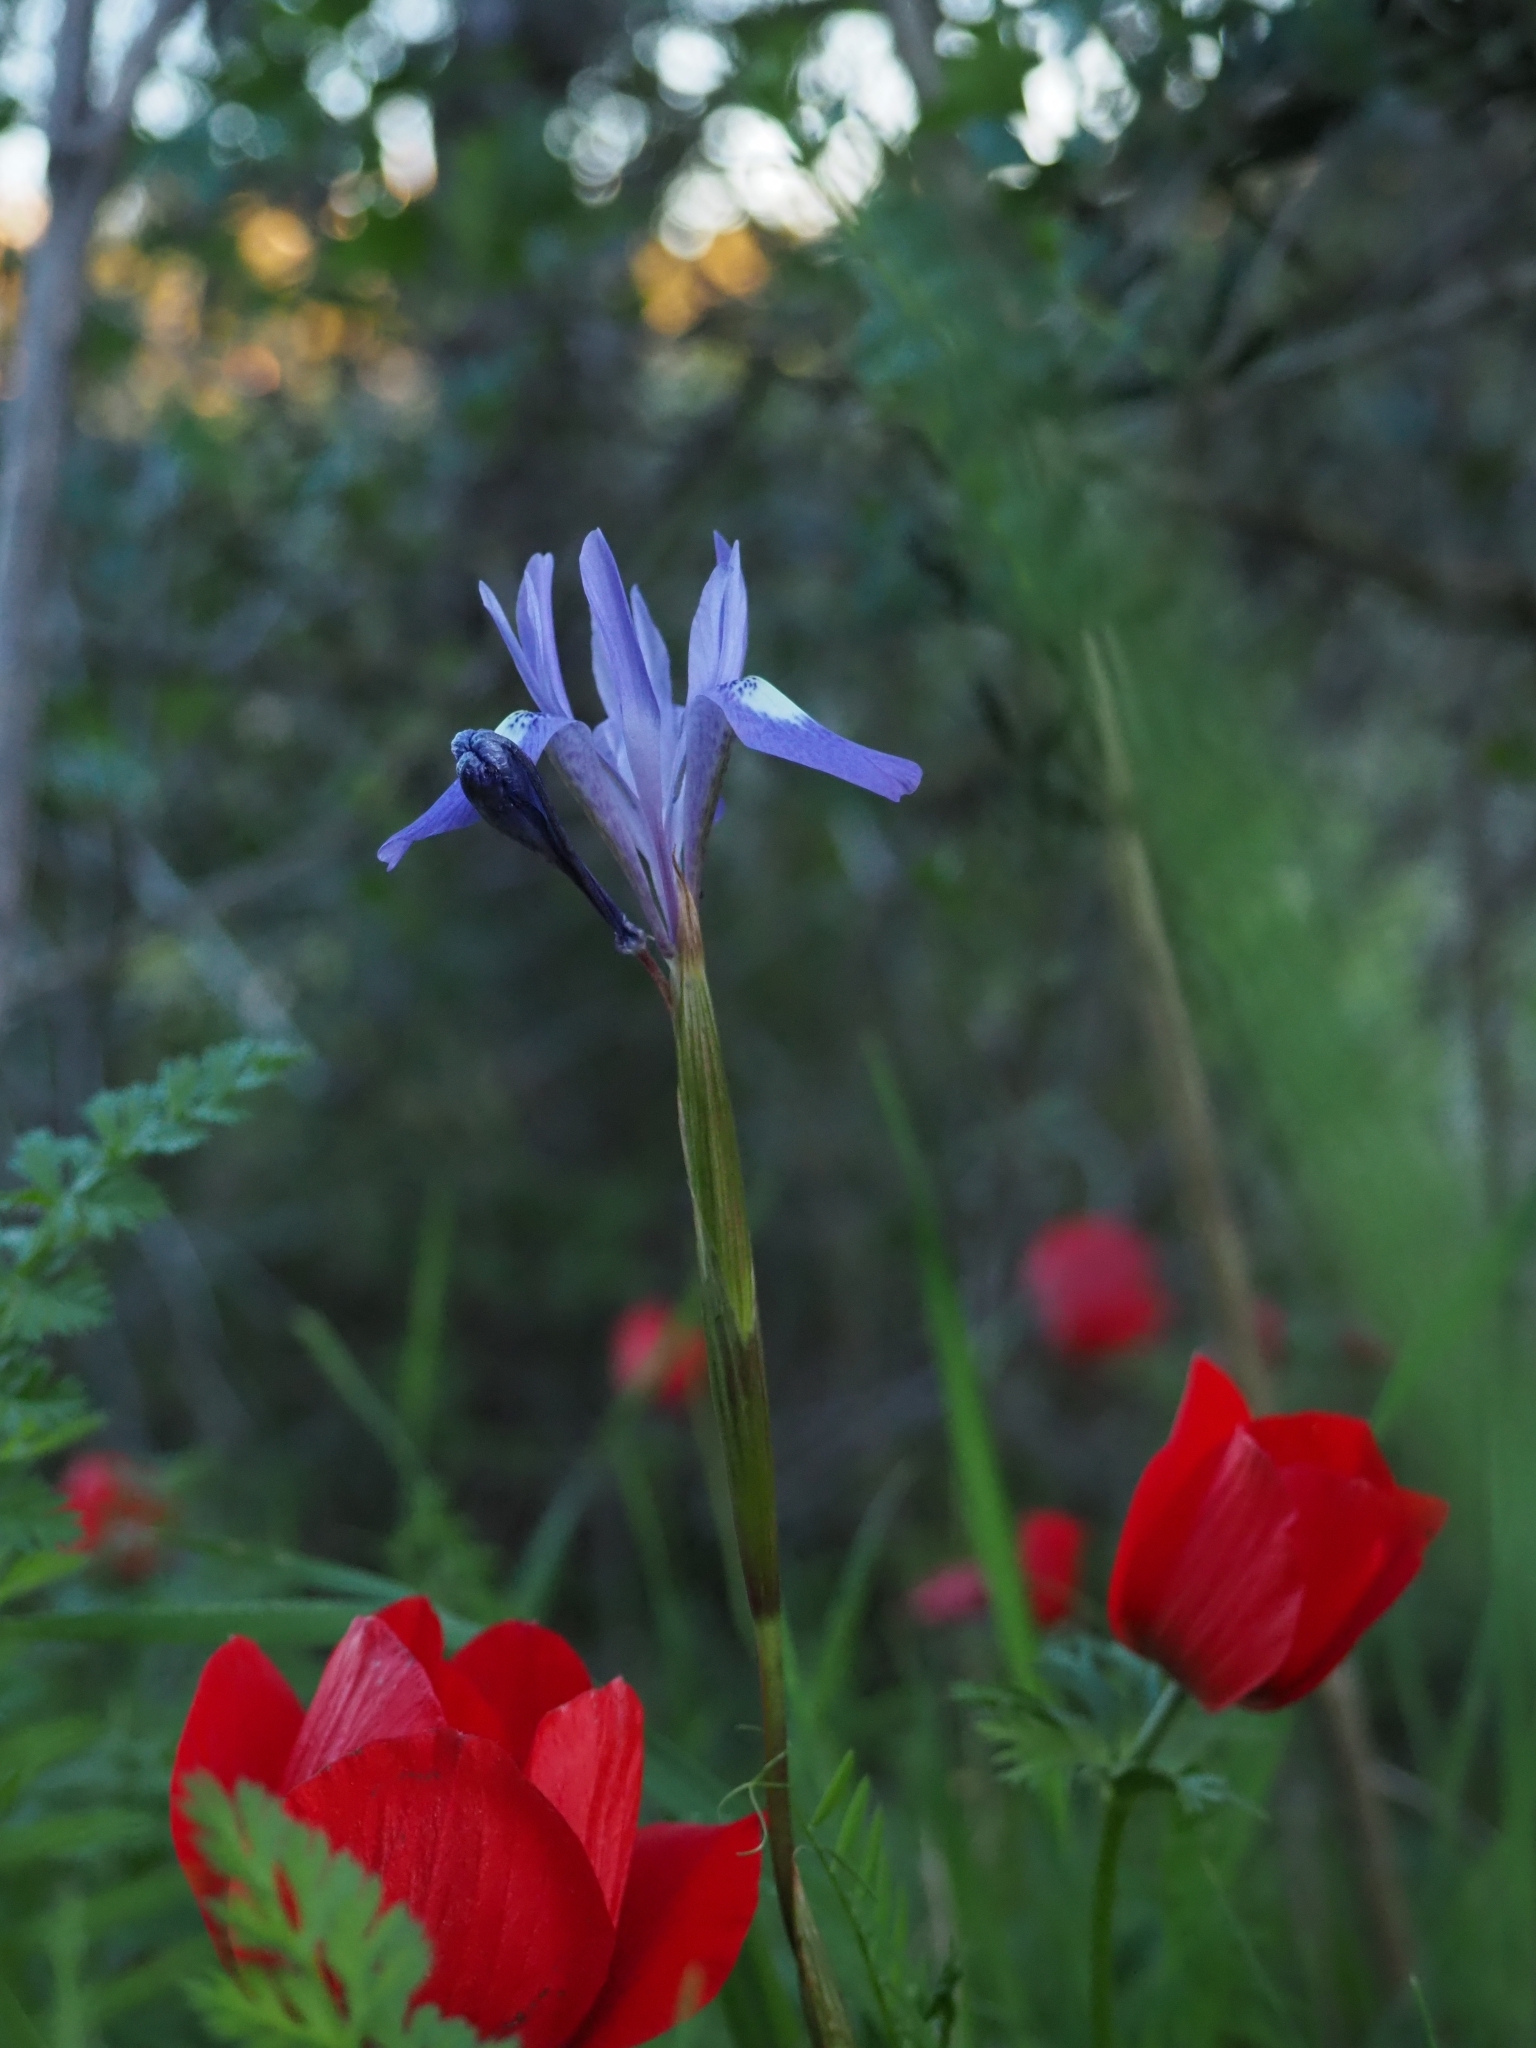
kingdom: Plantae
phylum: Tracheophyta
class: Liliopsida
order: Asparagales
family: Iridaceae
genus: Moraea
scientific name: Moraea sisyrinchium
